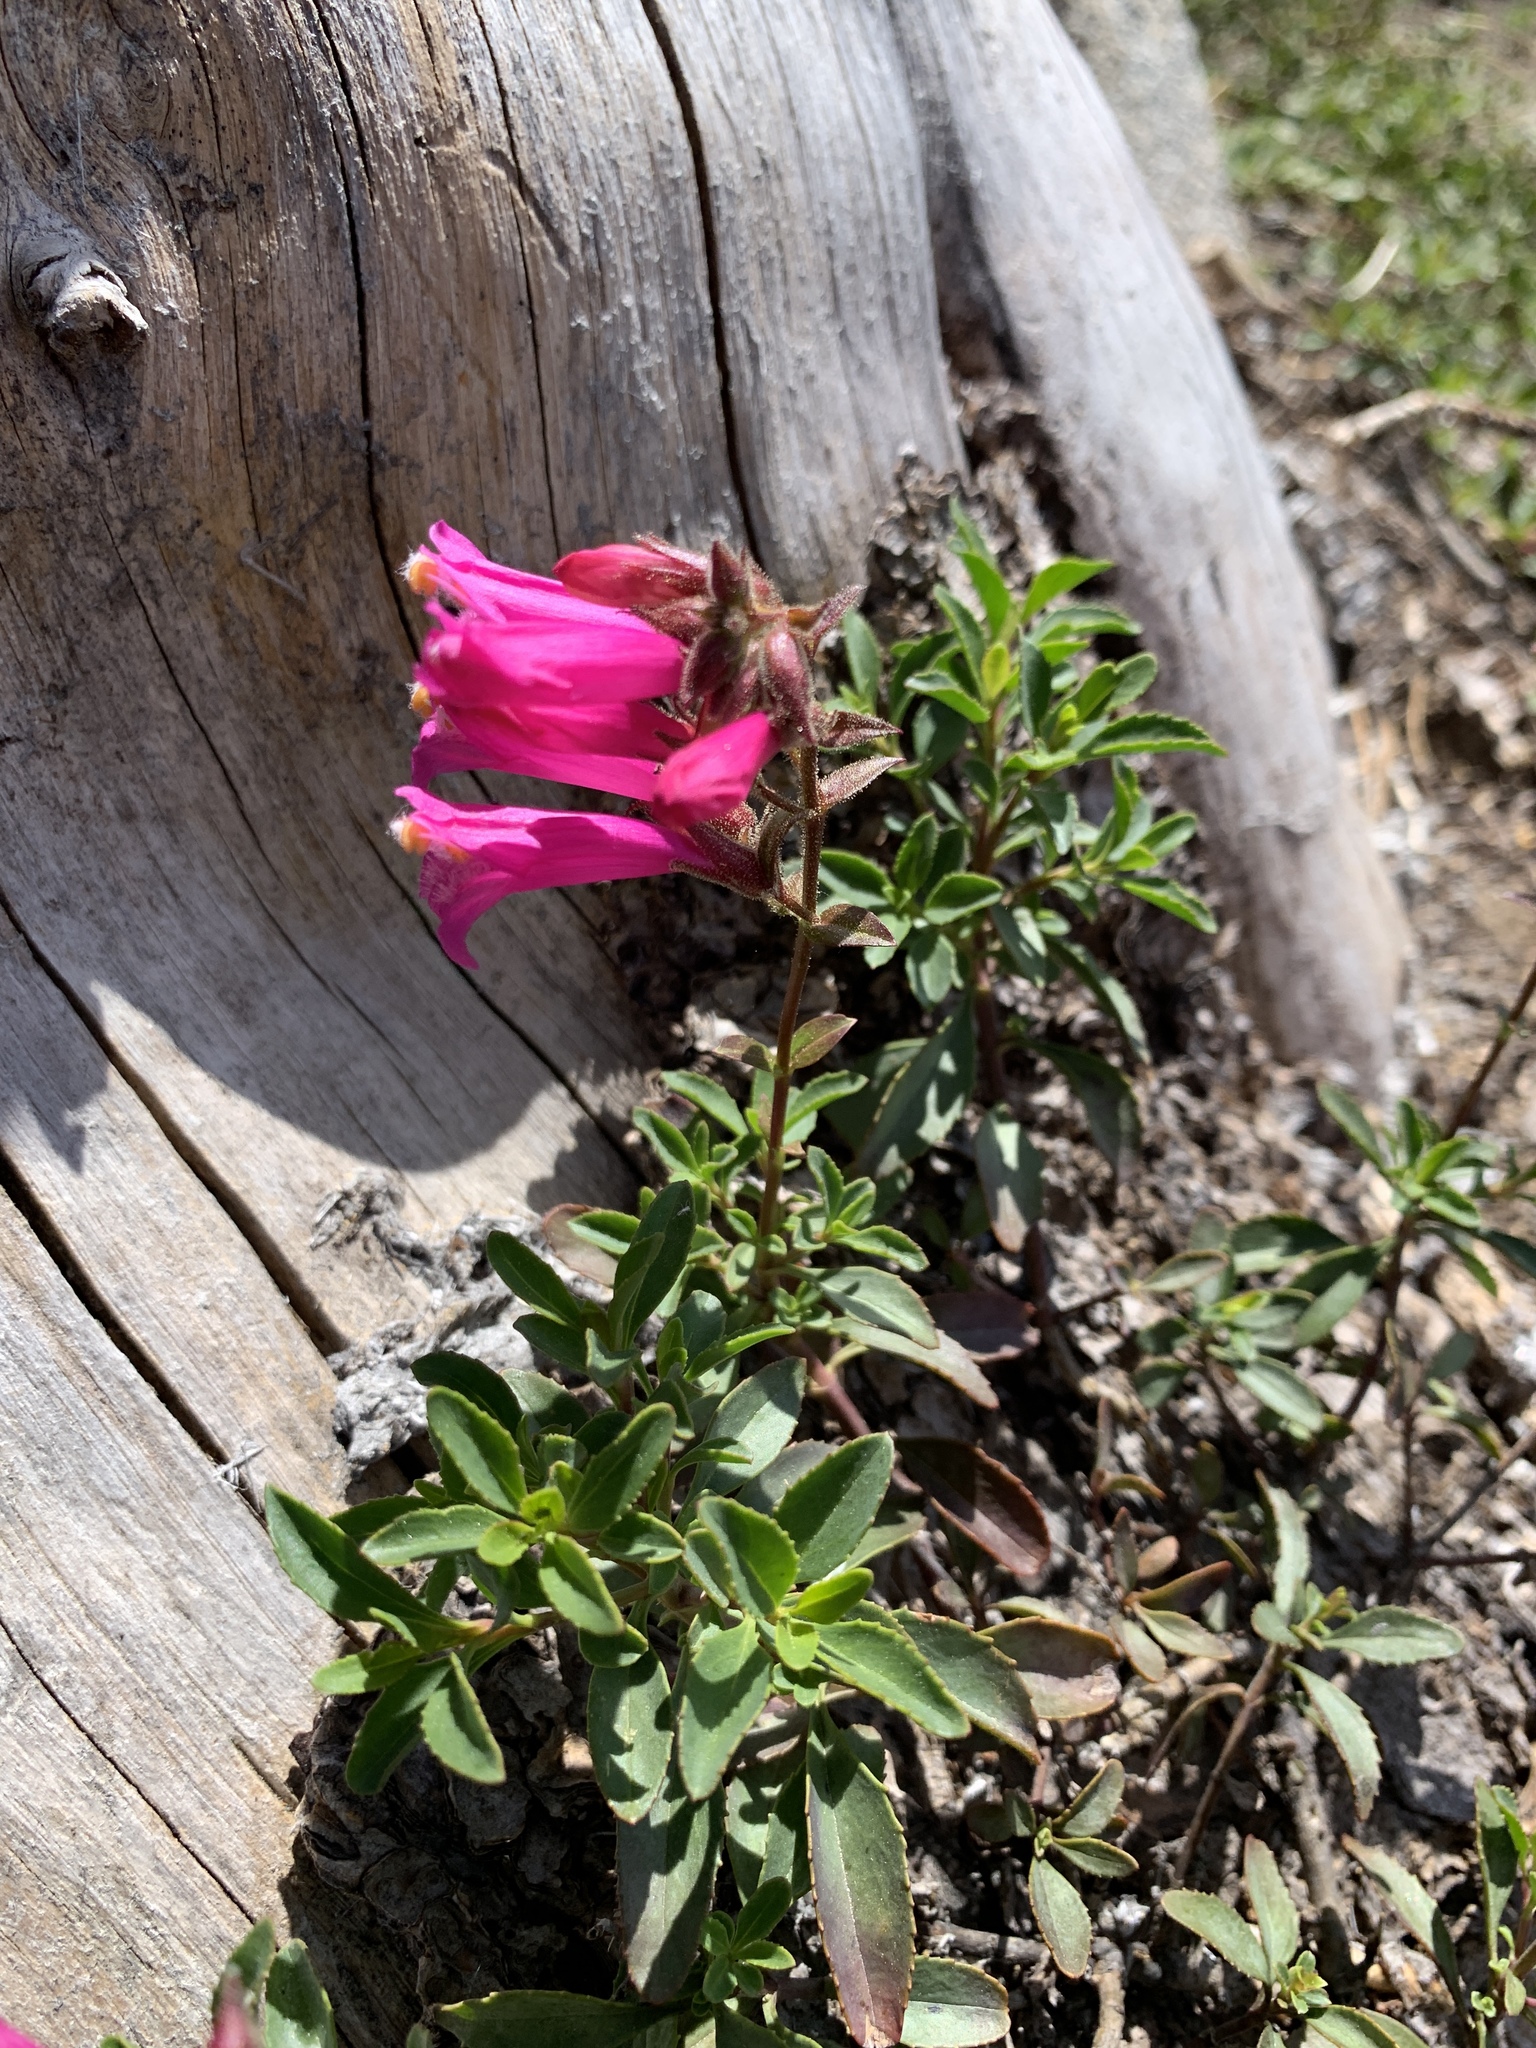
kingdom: Plantae
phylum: Tracheophyta
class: Magnoliopsida
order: Lamiales
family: Plantaginaceae
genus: Penstemon
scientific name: Penstemon newberryi
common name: Mountain-pride
